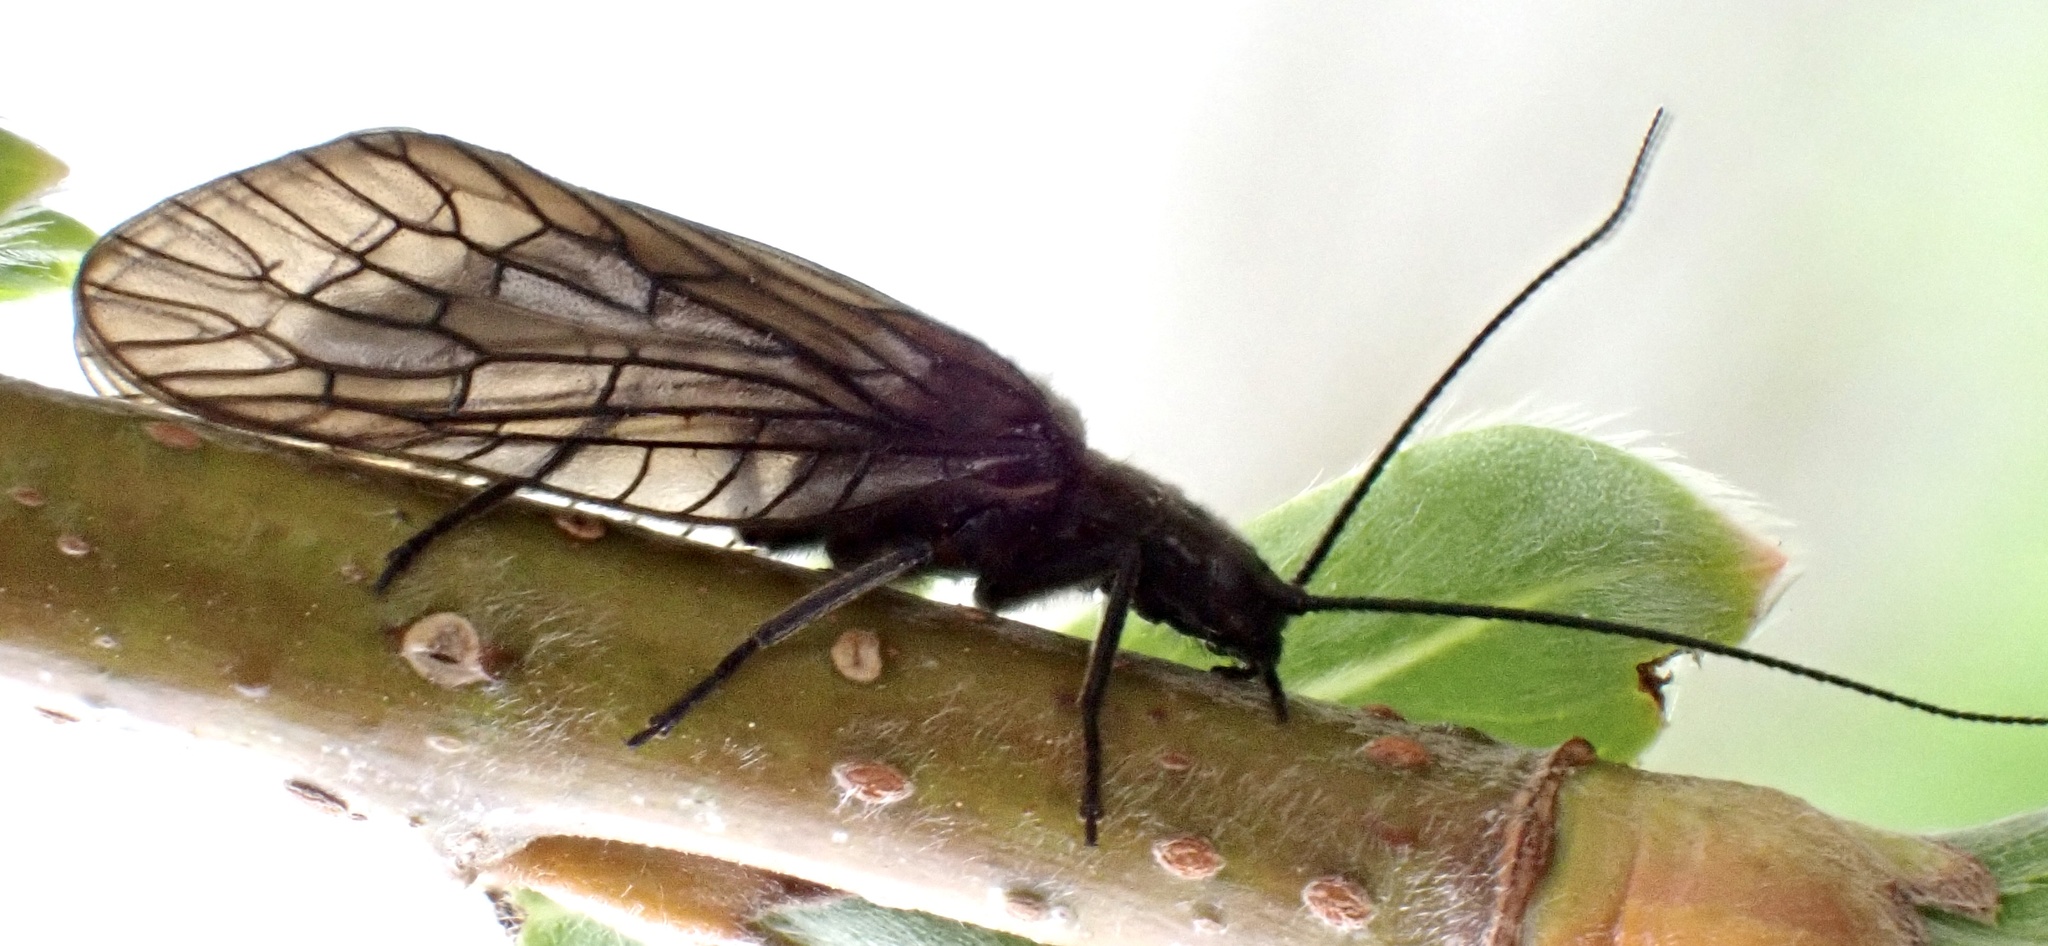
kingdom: Animalia
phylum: Arthropoda
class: Insecta
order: Megaloptera
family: Sialidae
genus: Sialis
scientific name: Sialis
